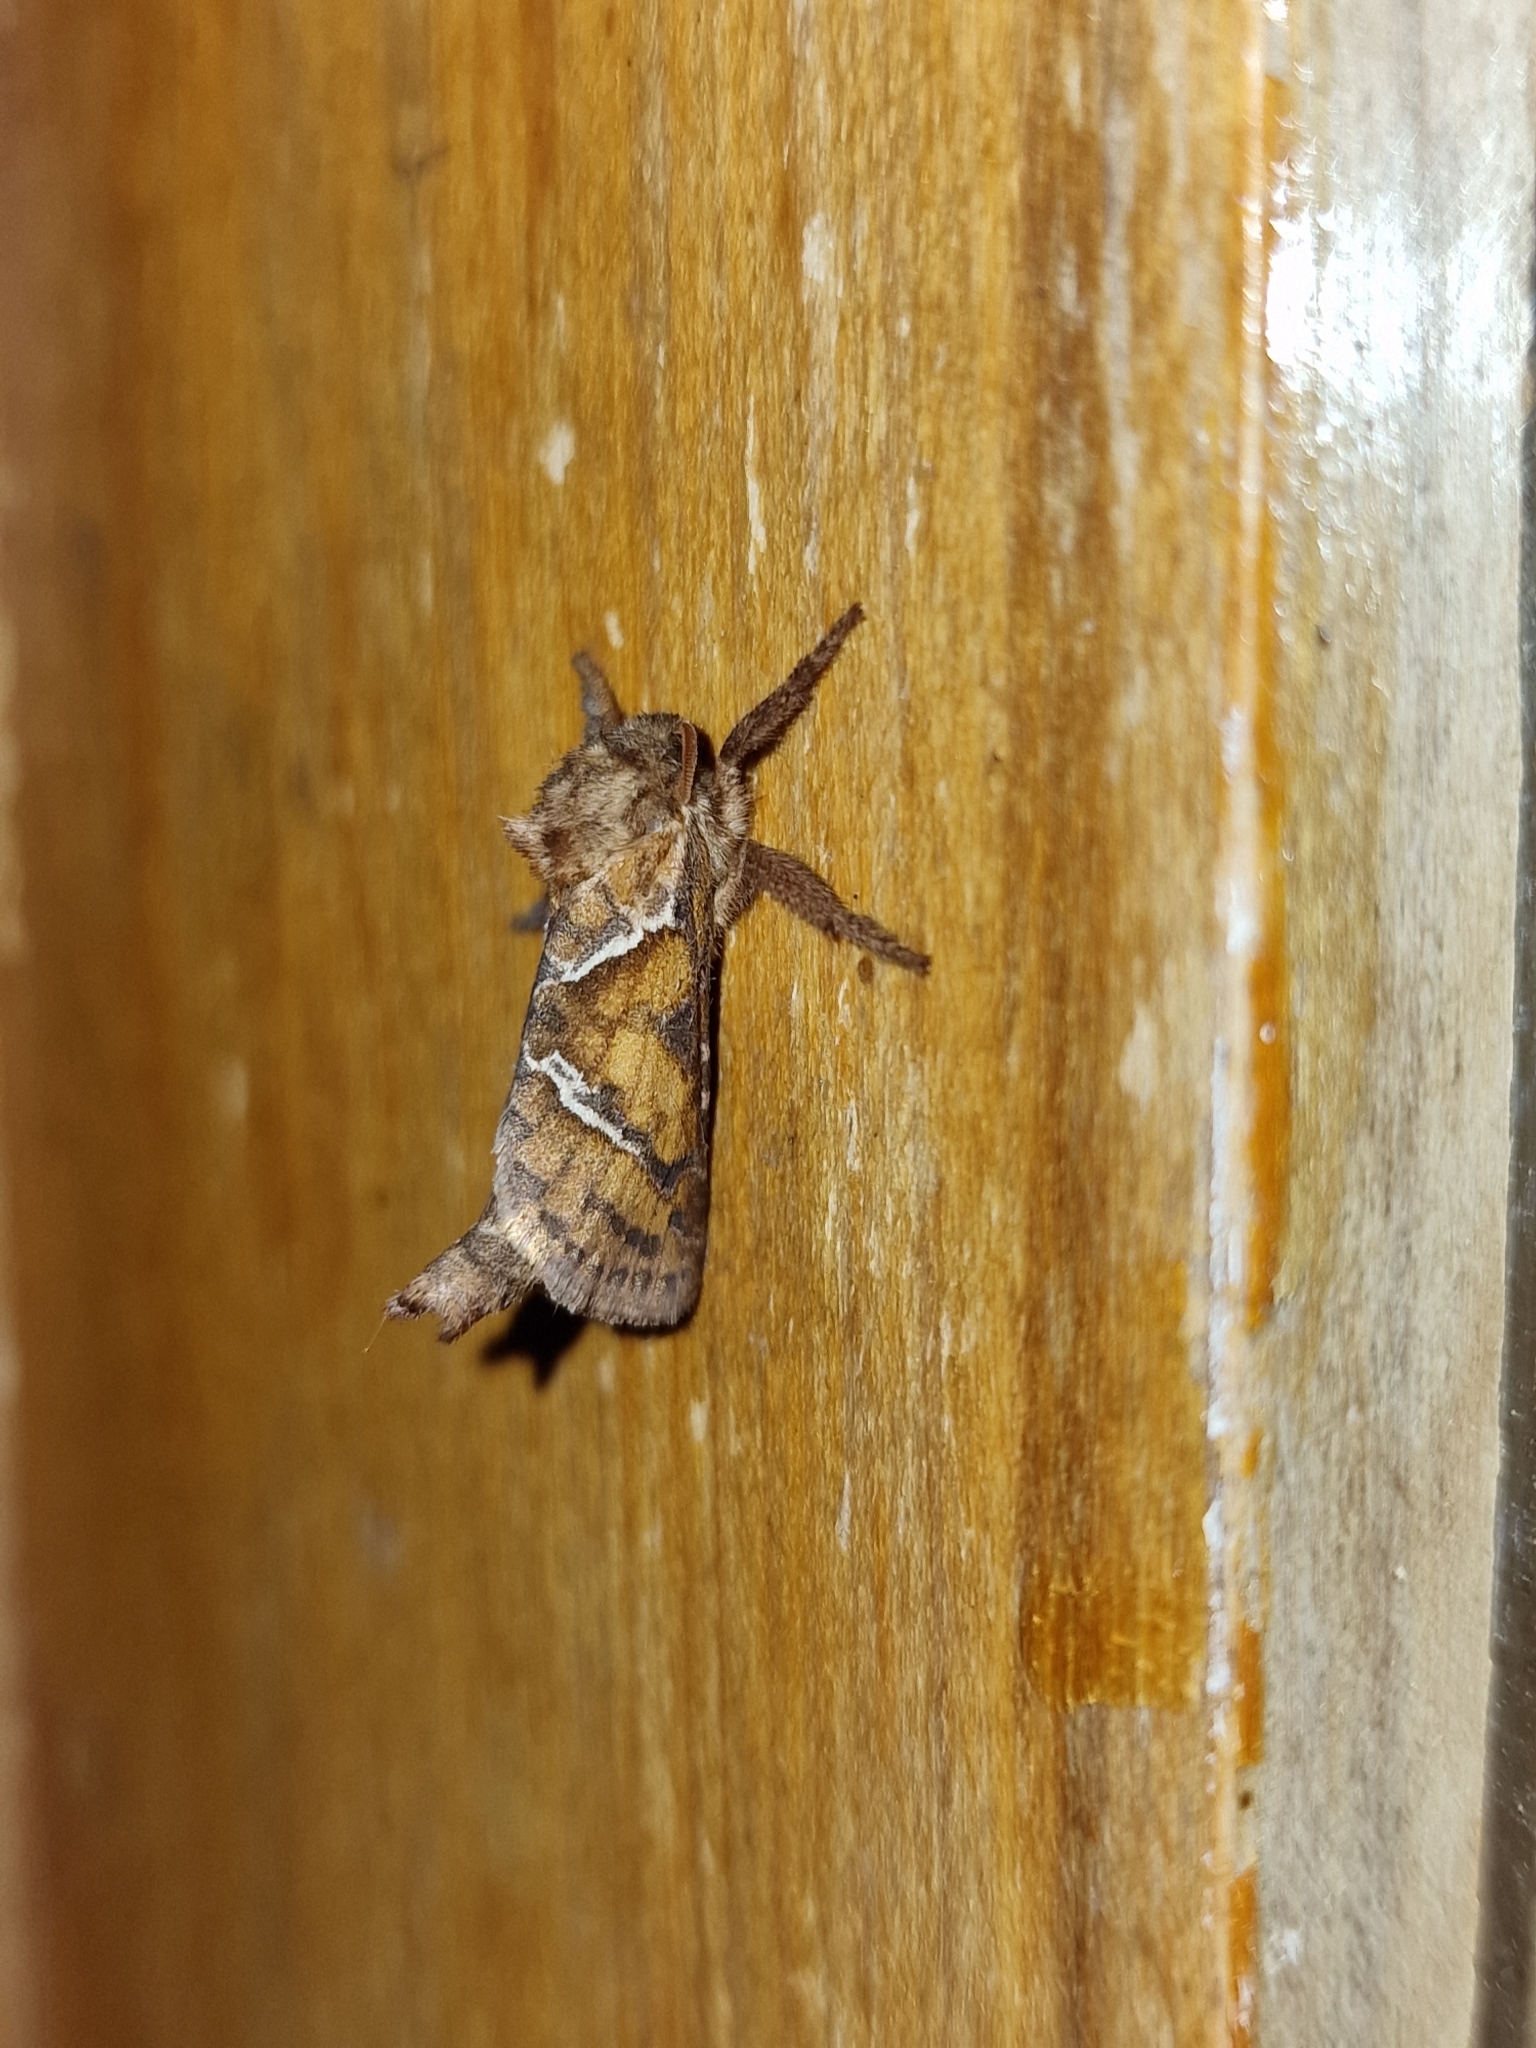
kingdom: Animalia
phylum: Arthropoda
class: Insecta
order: Lepidoptera
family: Hepialidae
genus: Triodia
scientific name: Triodia sylvina
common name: Orange swift
